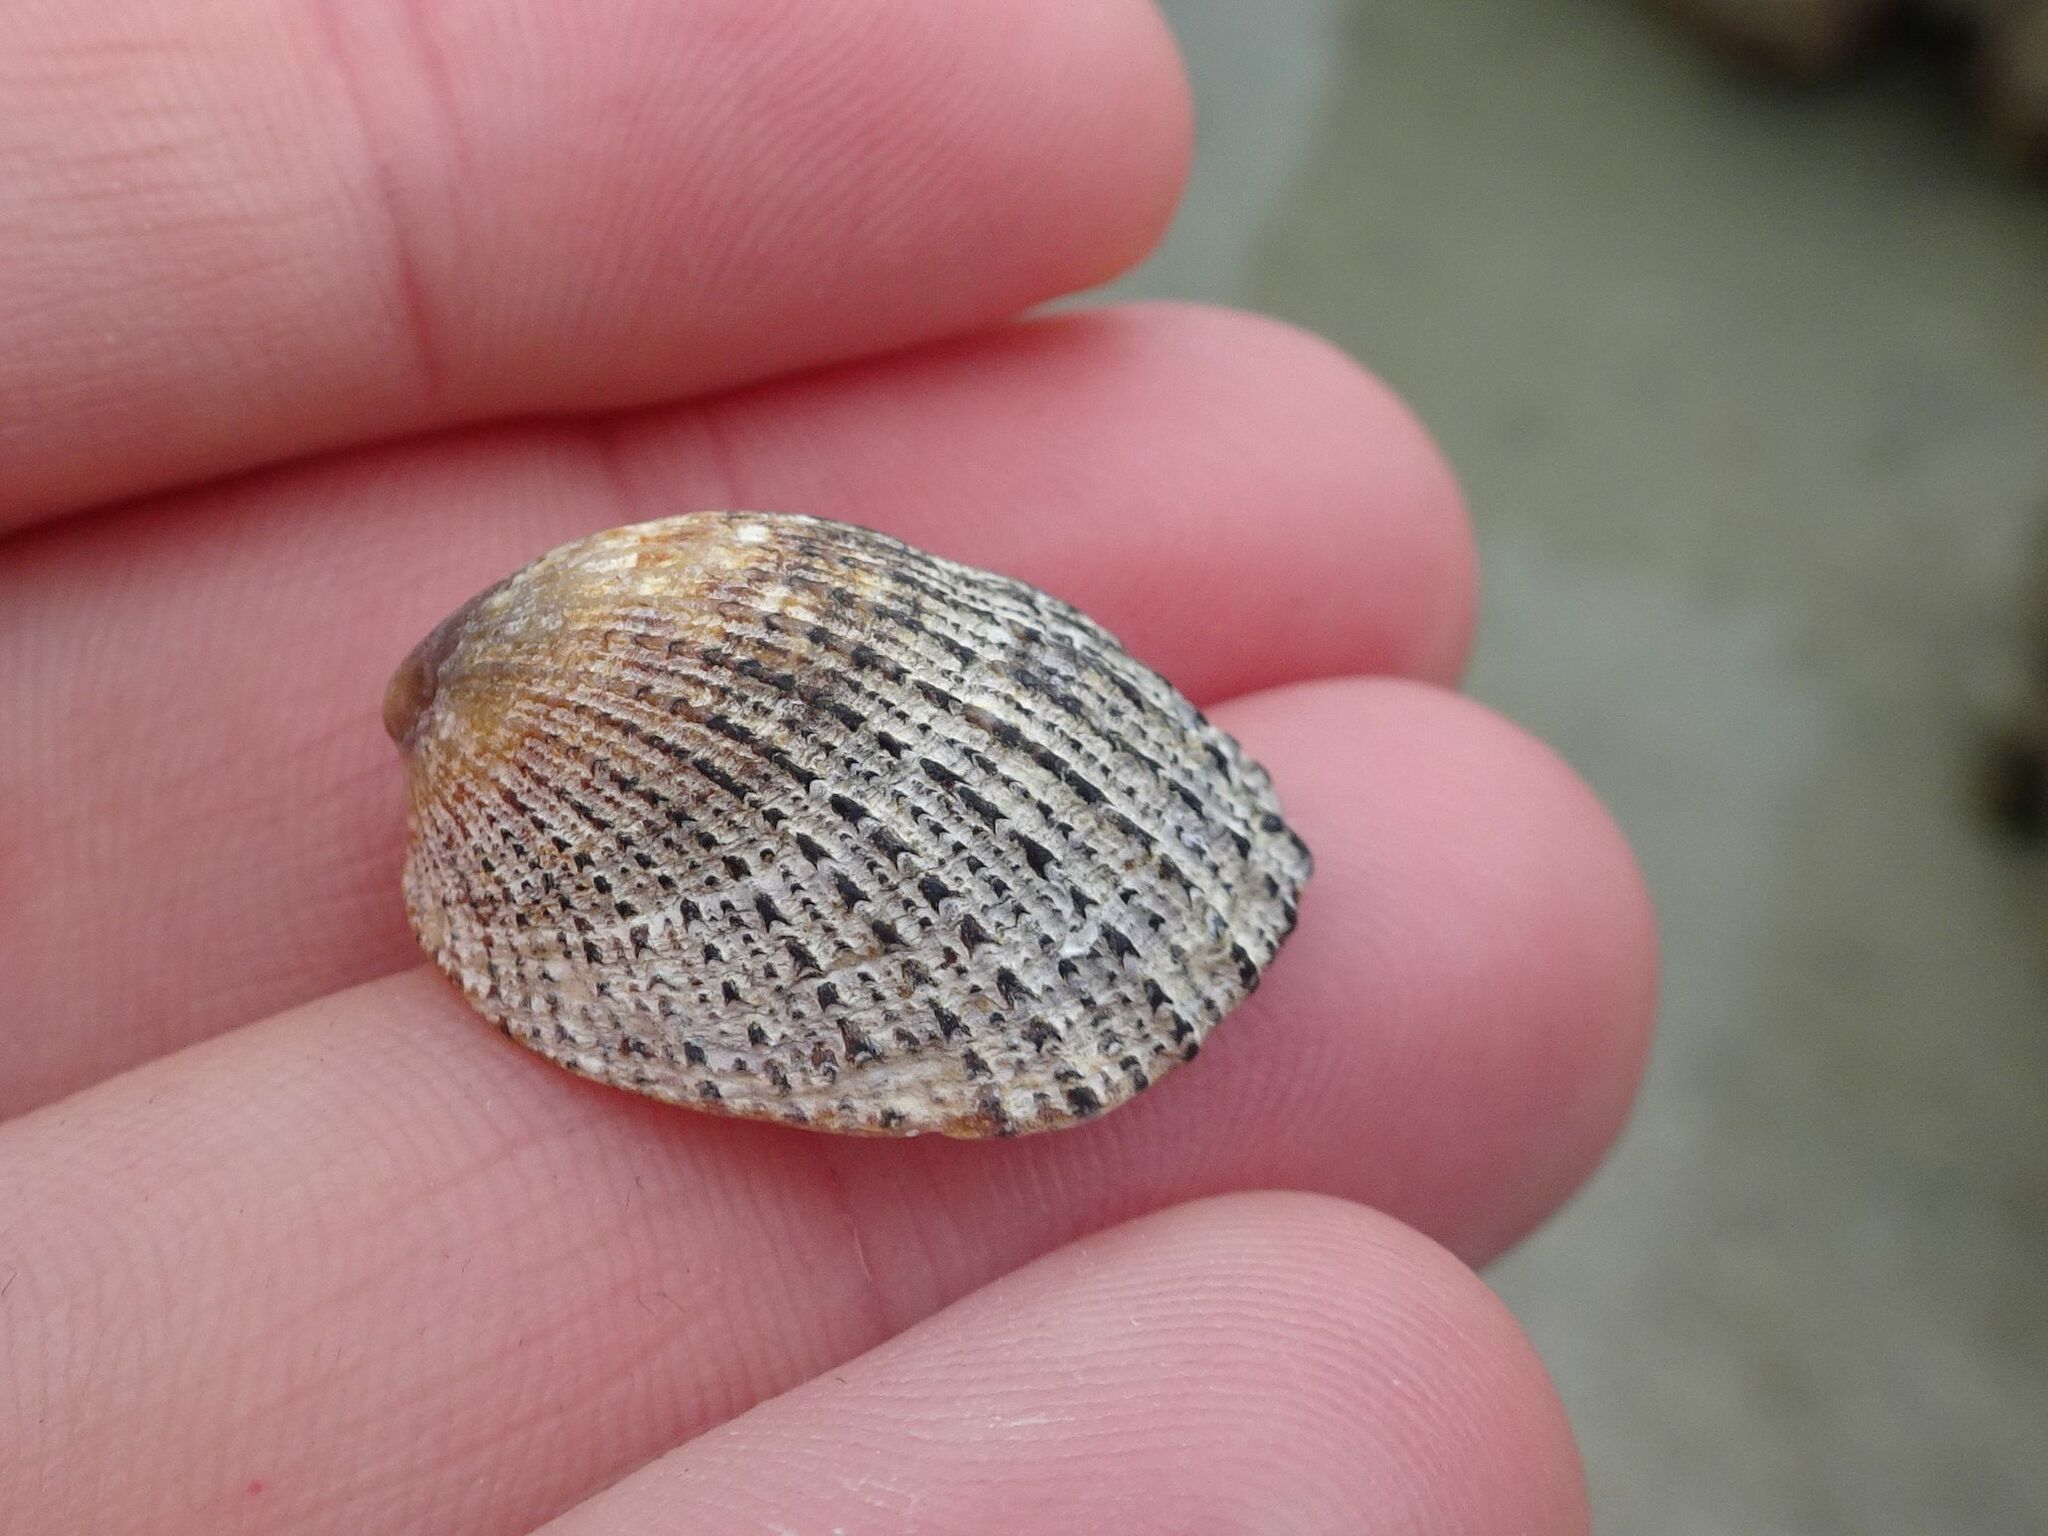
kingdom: Animalia
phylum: Mollusca
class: Gastropoda
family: Patellidae
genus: Helcion
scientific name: Helcion pectunculus
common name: Prickly limpet
